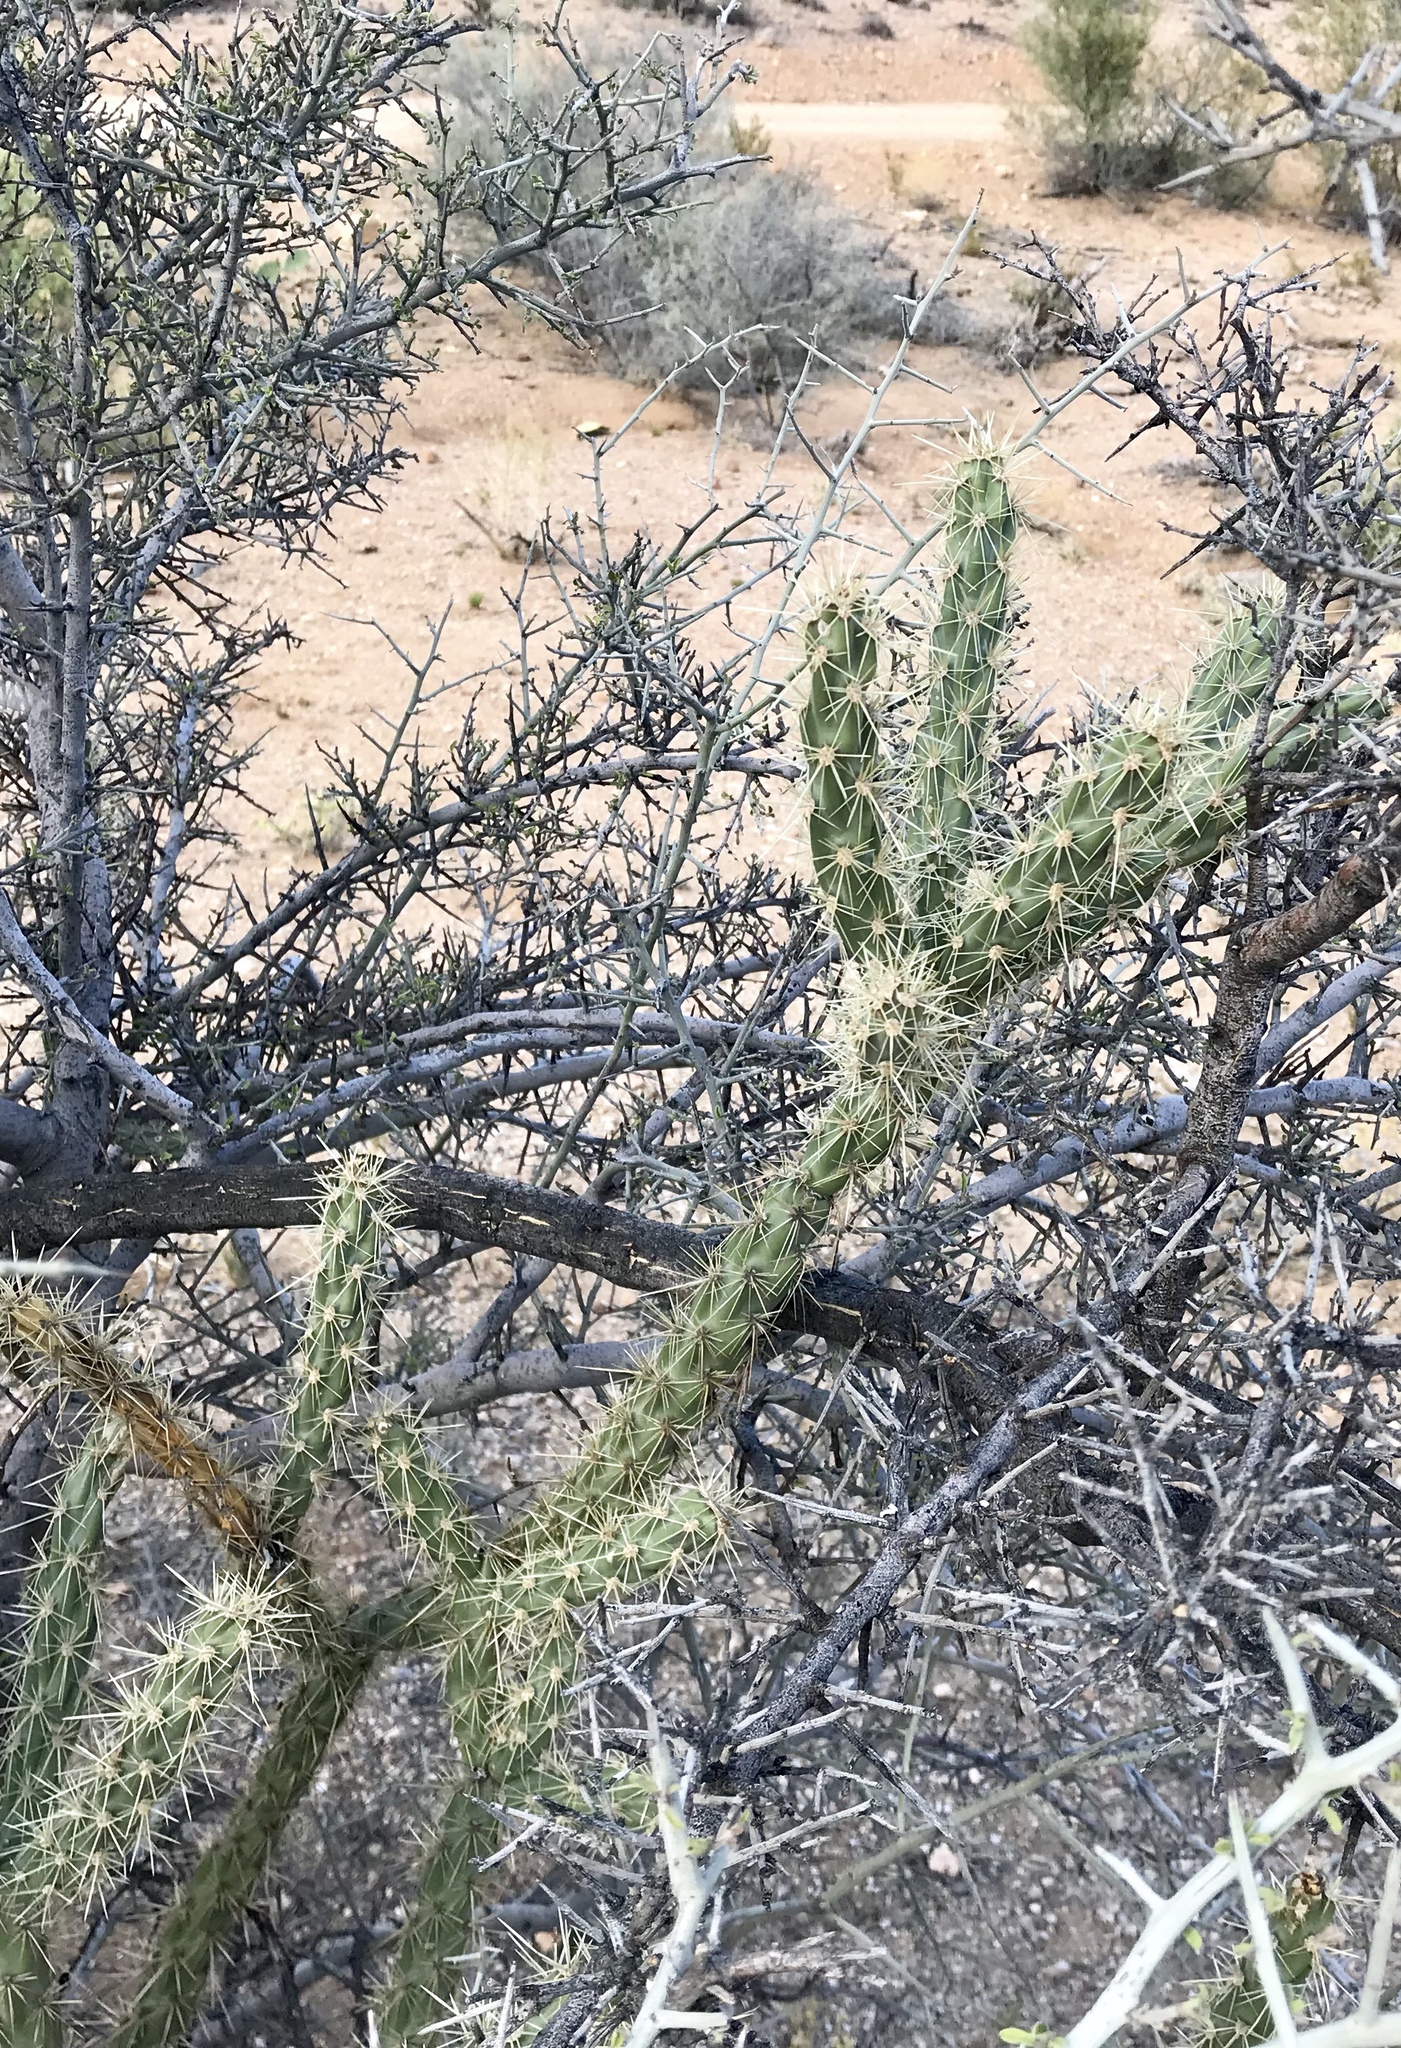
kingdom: Plantae
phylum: Tracheophyta
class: Magnoliopsida
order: Caryophyllales
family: Cactaceae
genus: Cylindropuntia
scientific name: Cylindropuntia acanthocarpa
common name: Buckhorn cholla
